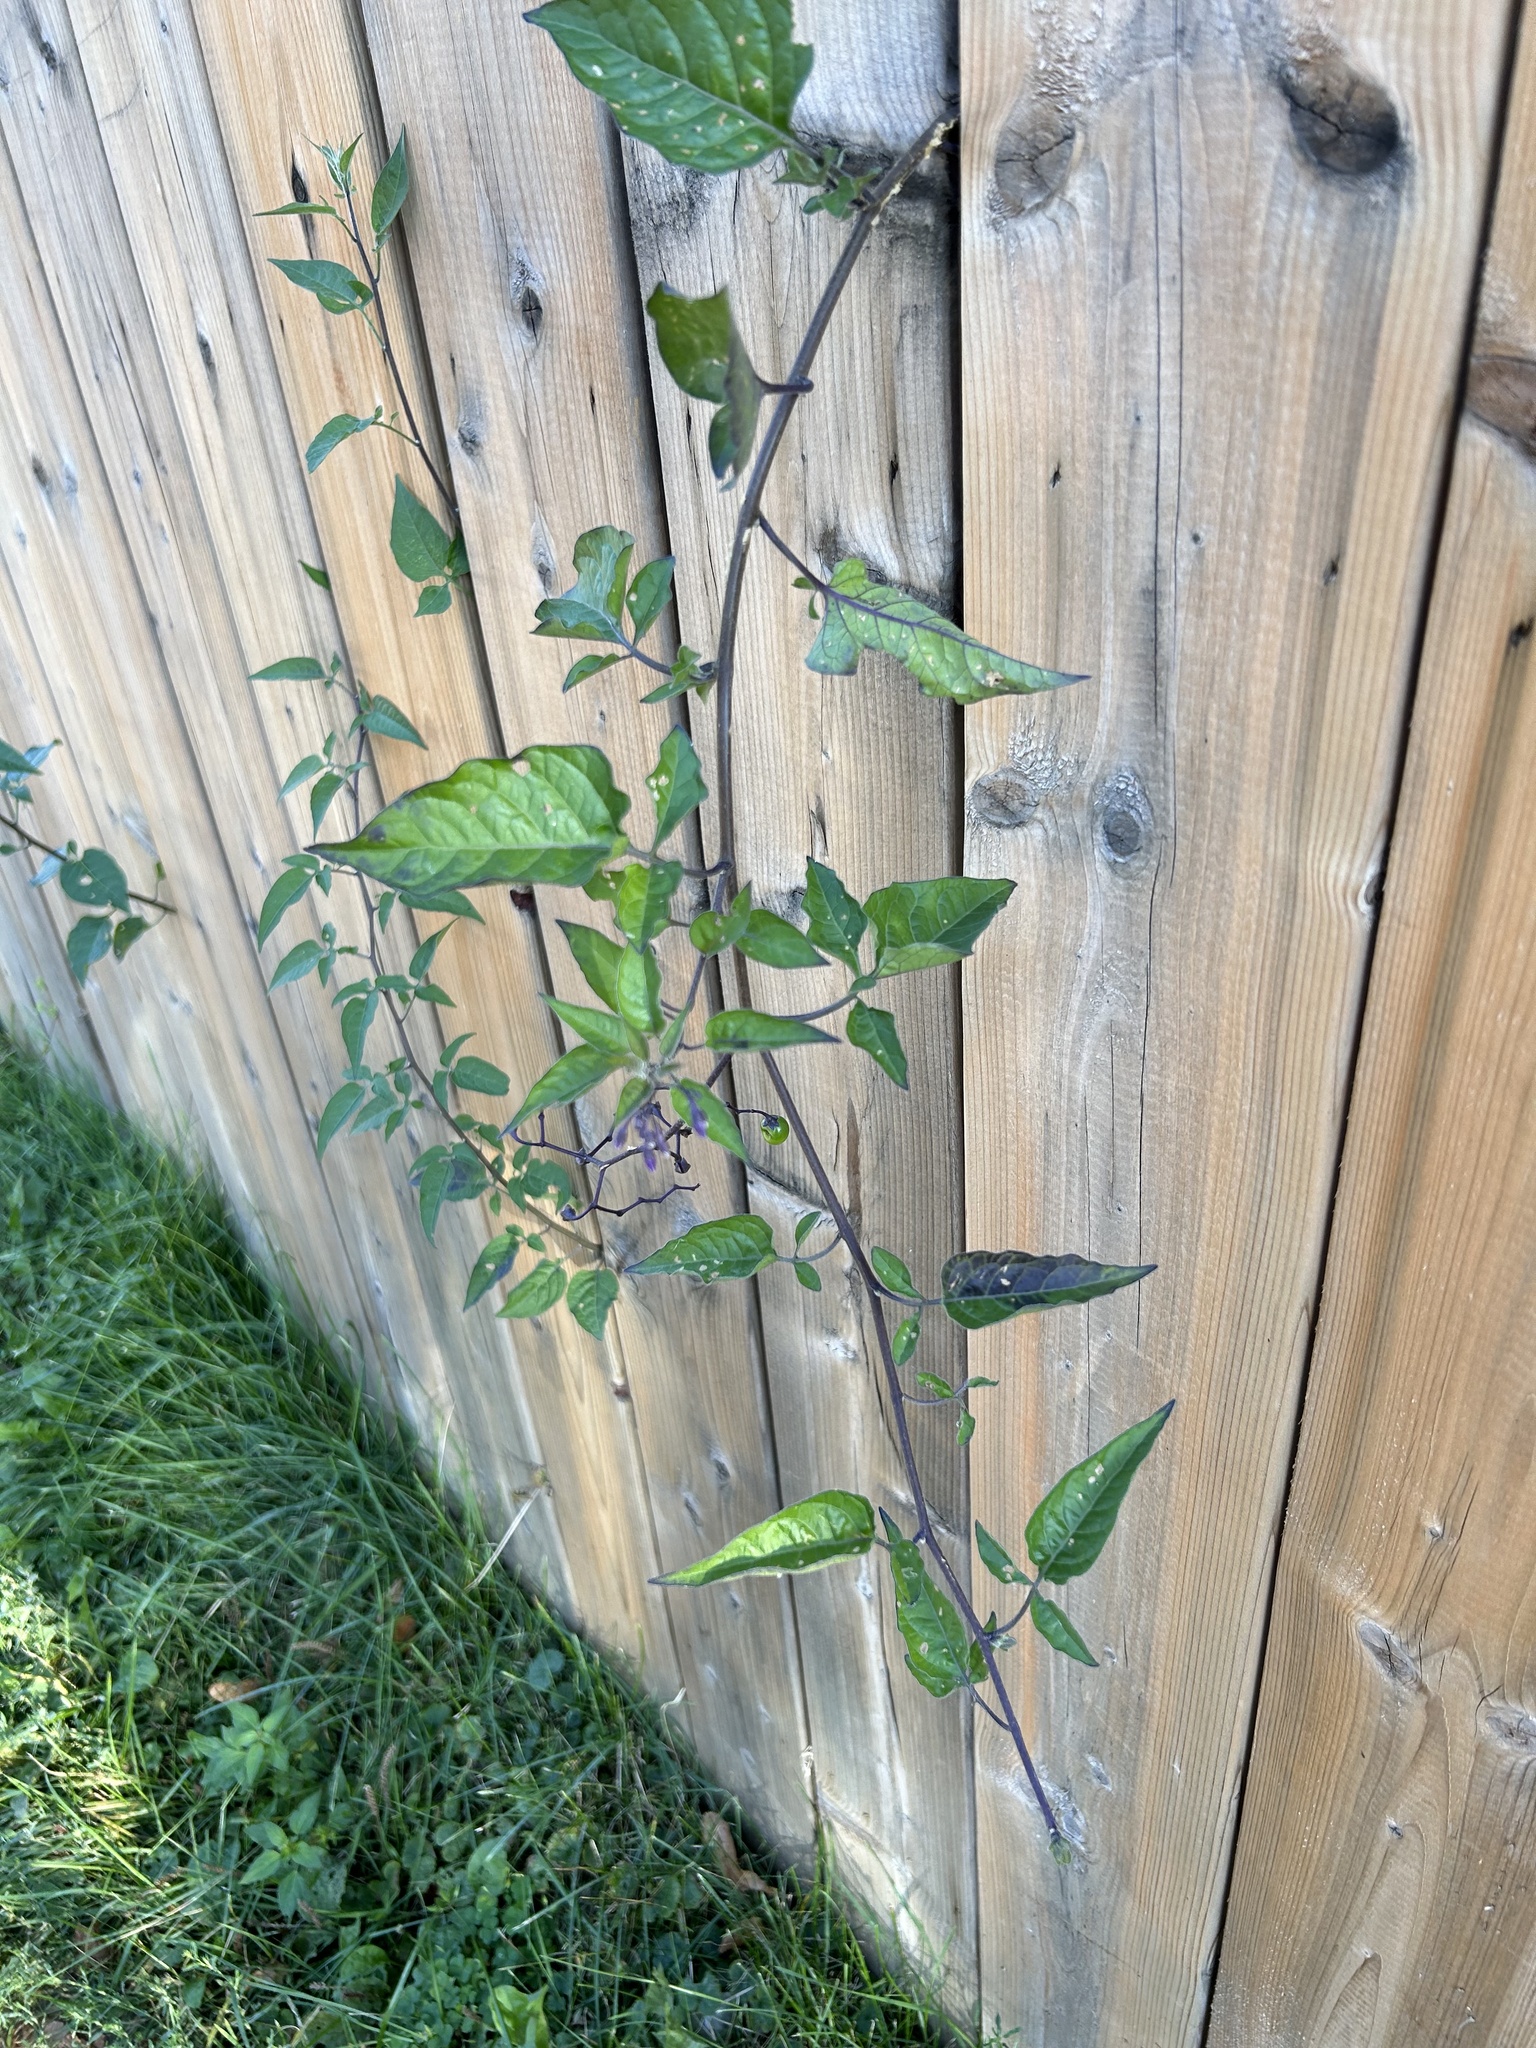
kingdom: Plantae
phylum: Tracheophyta
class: Magnoliopsida
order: Solanales
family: Solanaceae
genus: Solanum
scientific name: Solanum dulcamara
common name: Climbing nightshade
